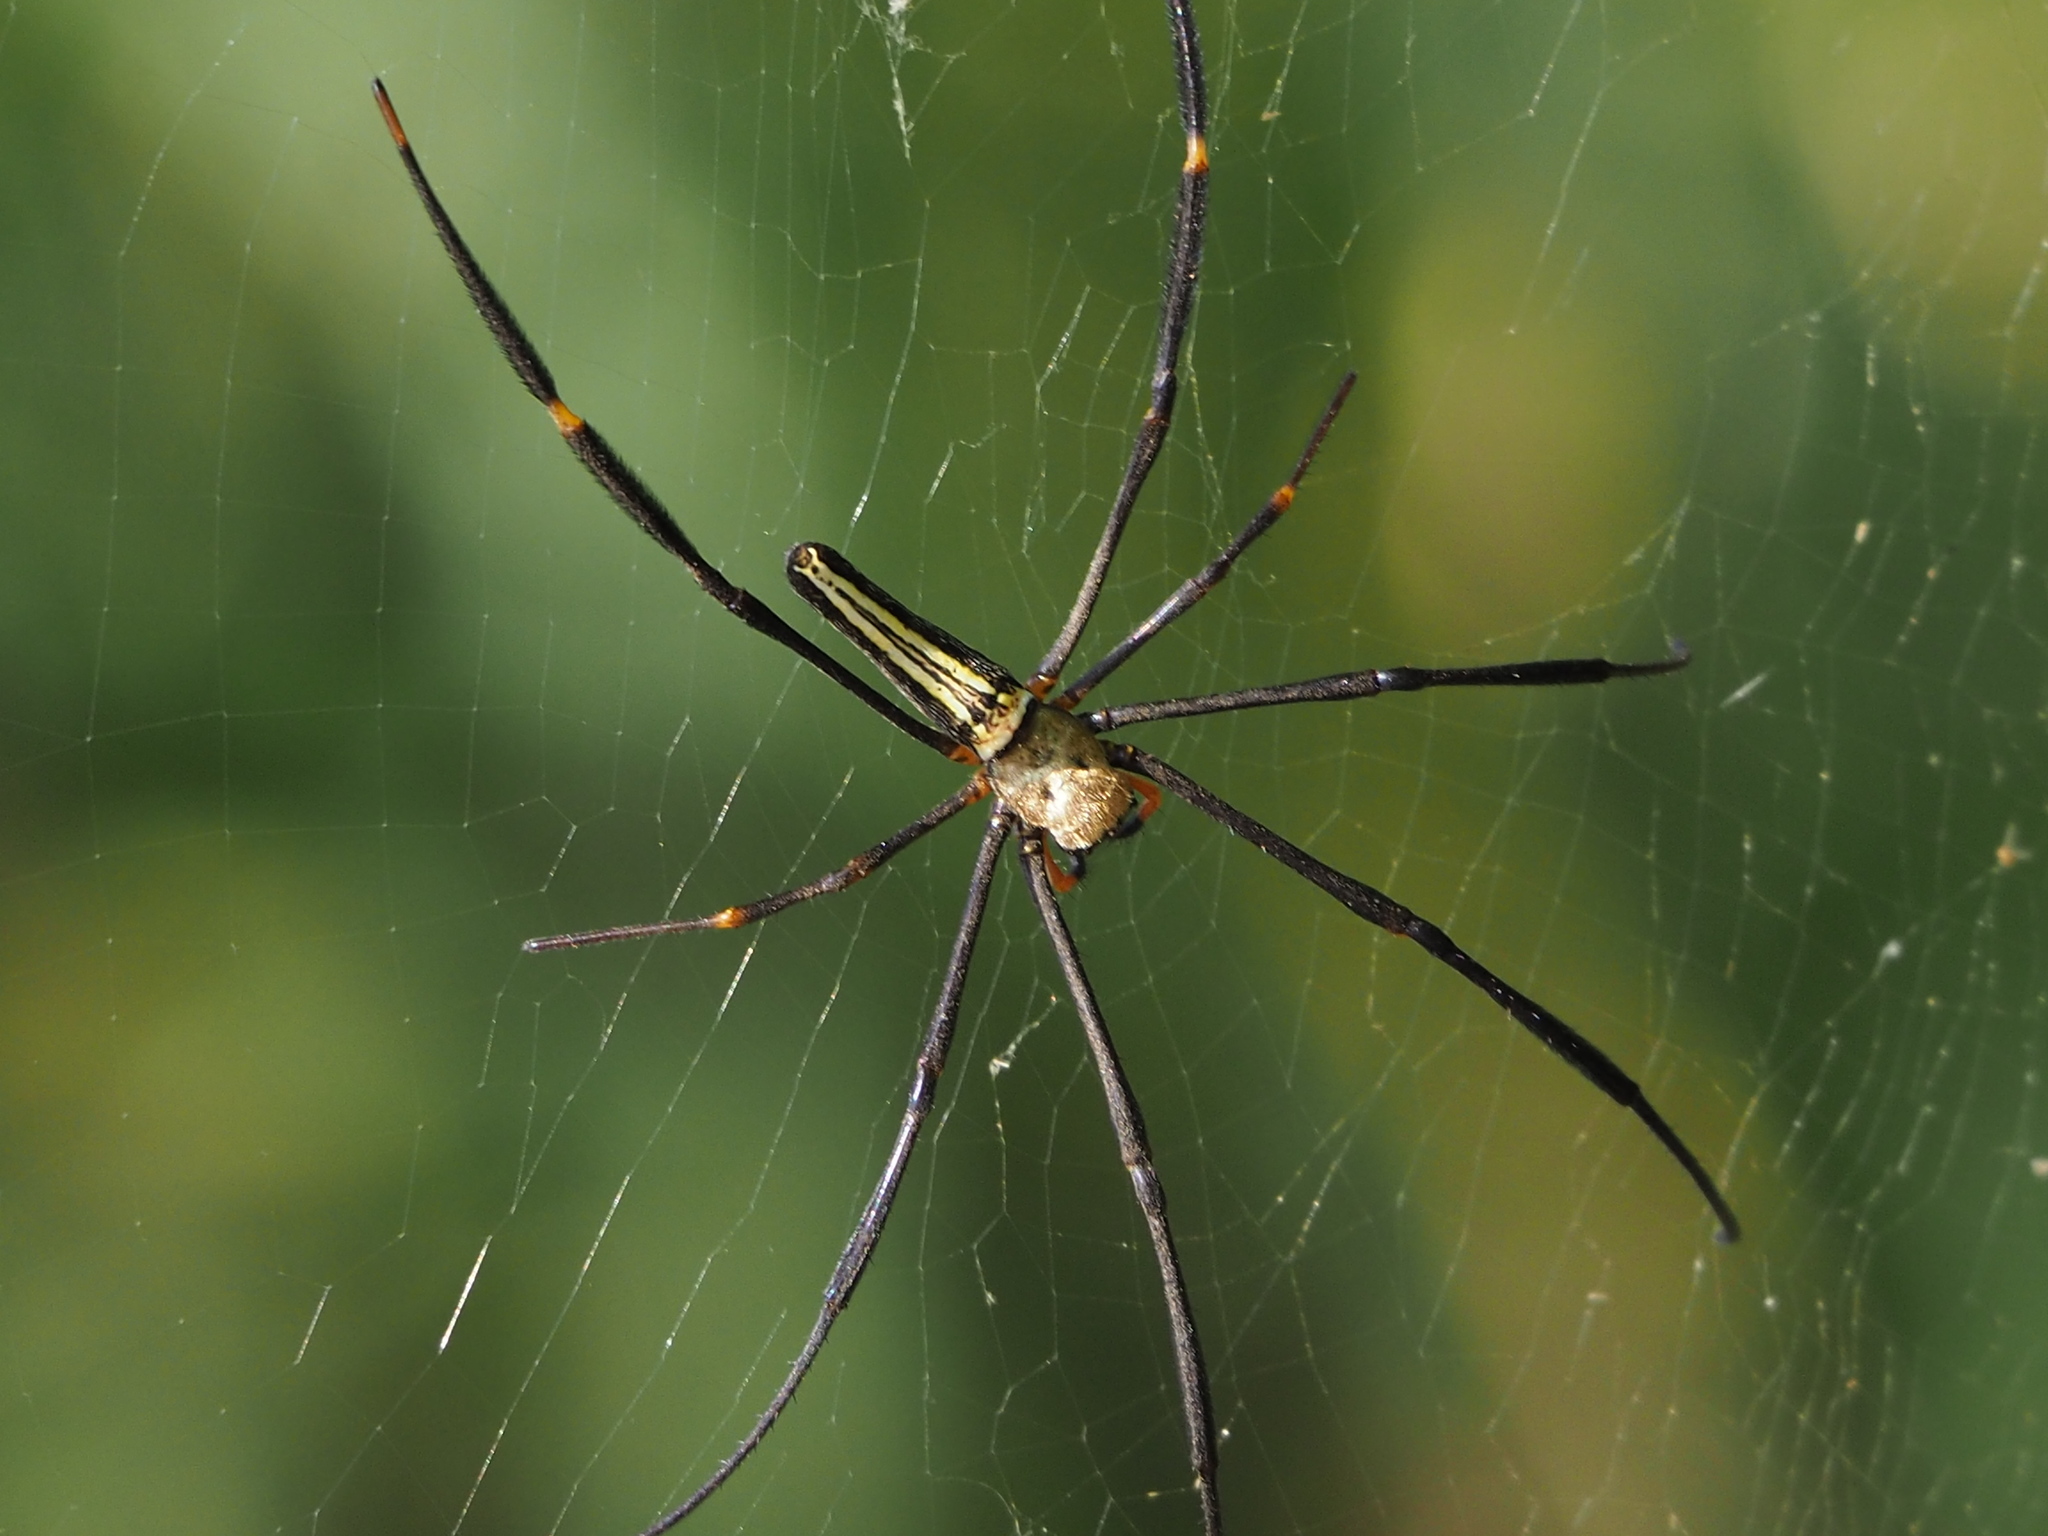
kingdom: Animalia
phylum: Arthropoda
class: Arachnida
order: Araneae
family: Araneidae
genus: Nephila
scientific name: Nephila pilipes
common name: Giant golden orb weaver
